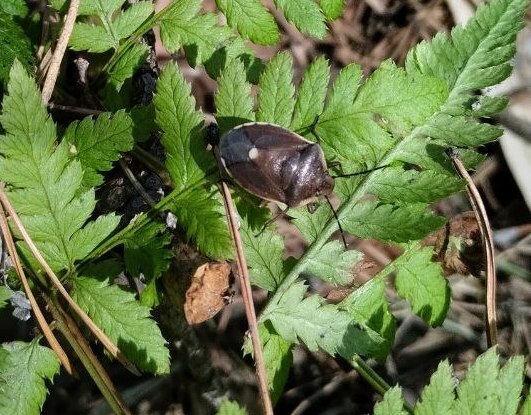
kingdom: Animalia
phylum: Arthropoda
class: Insecta
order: Hemiptera
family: Pentatomidae
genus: Chlorochroa
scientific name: Chlorochroa pinicola
